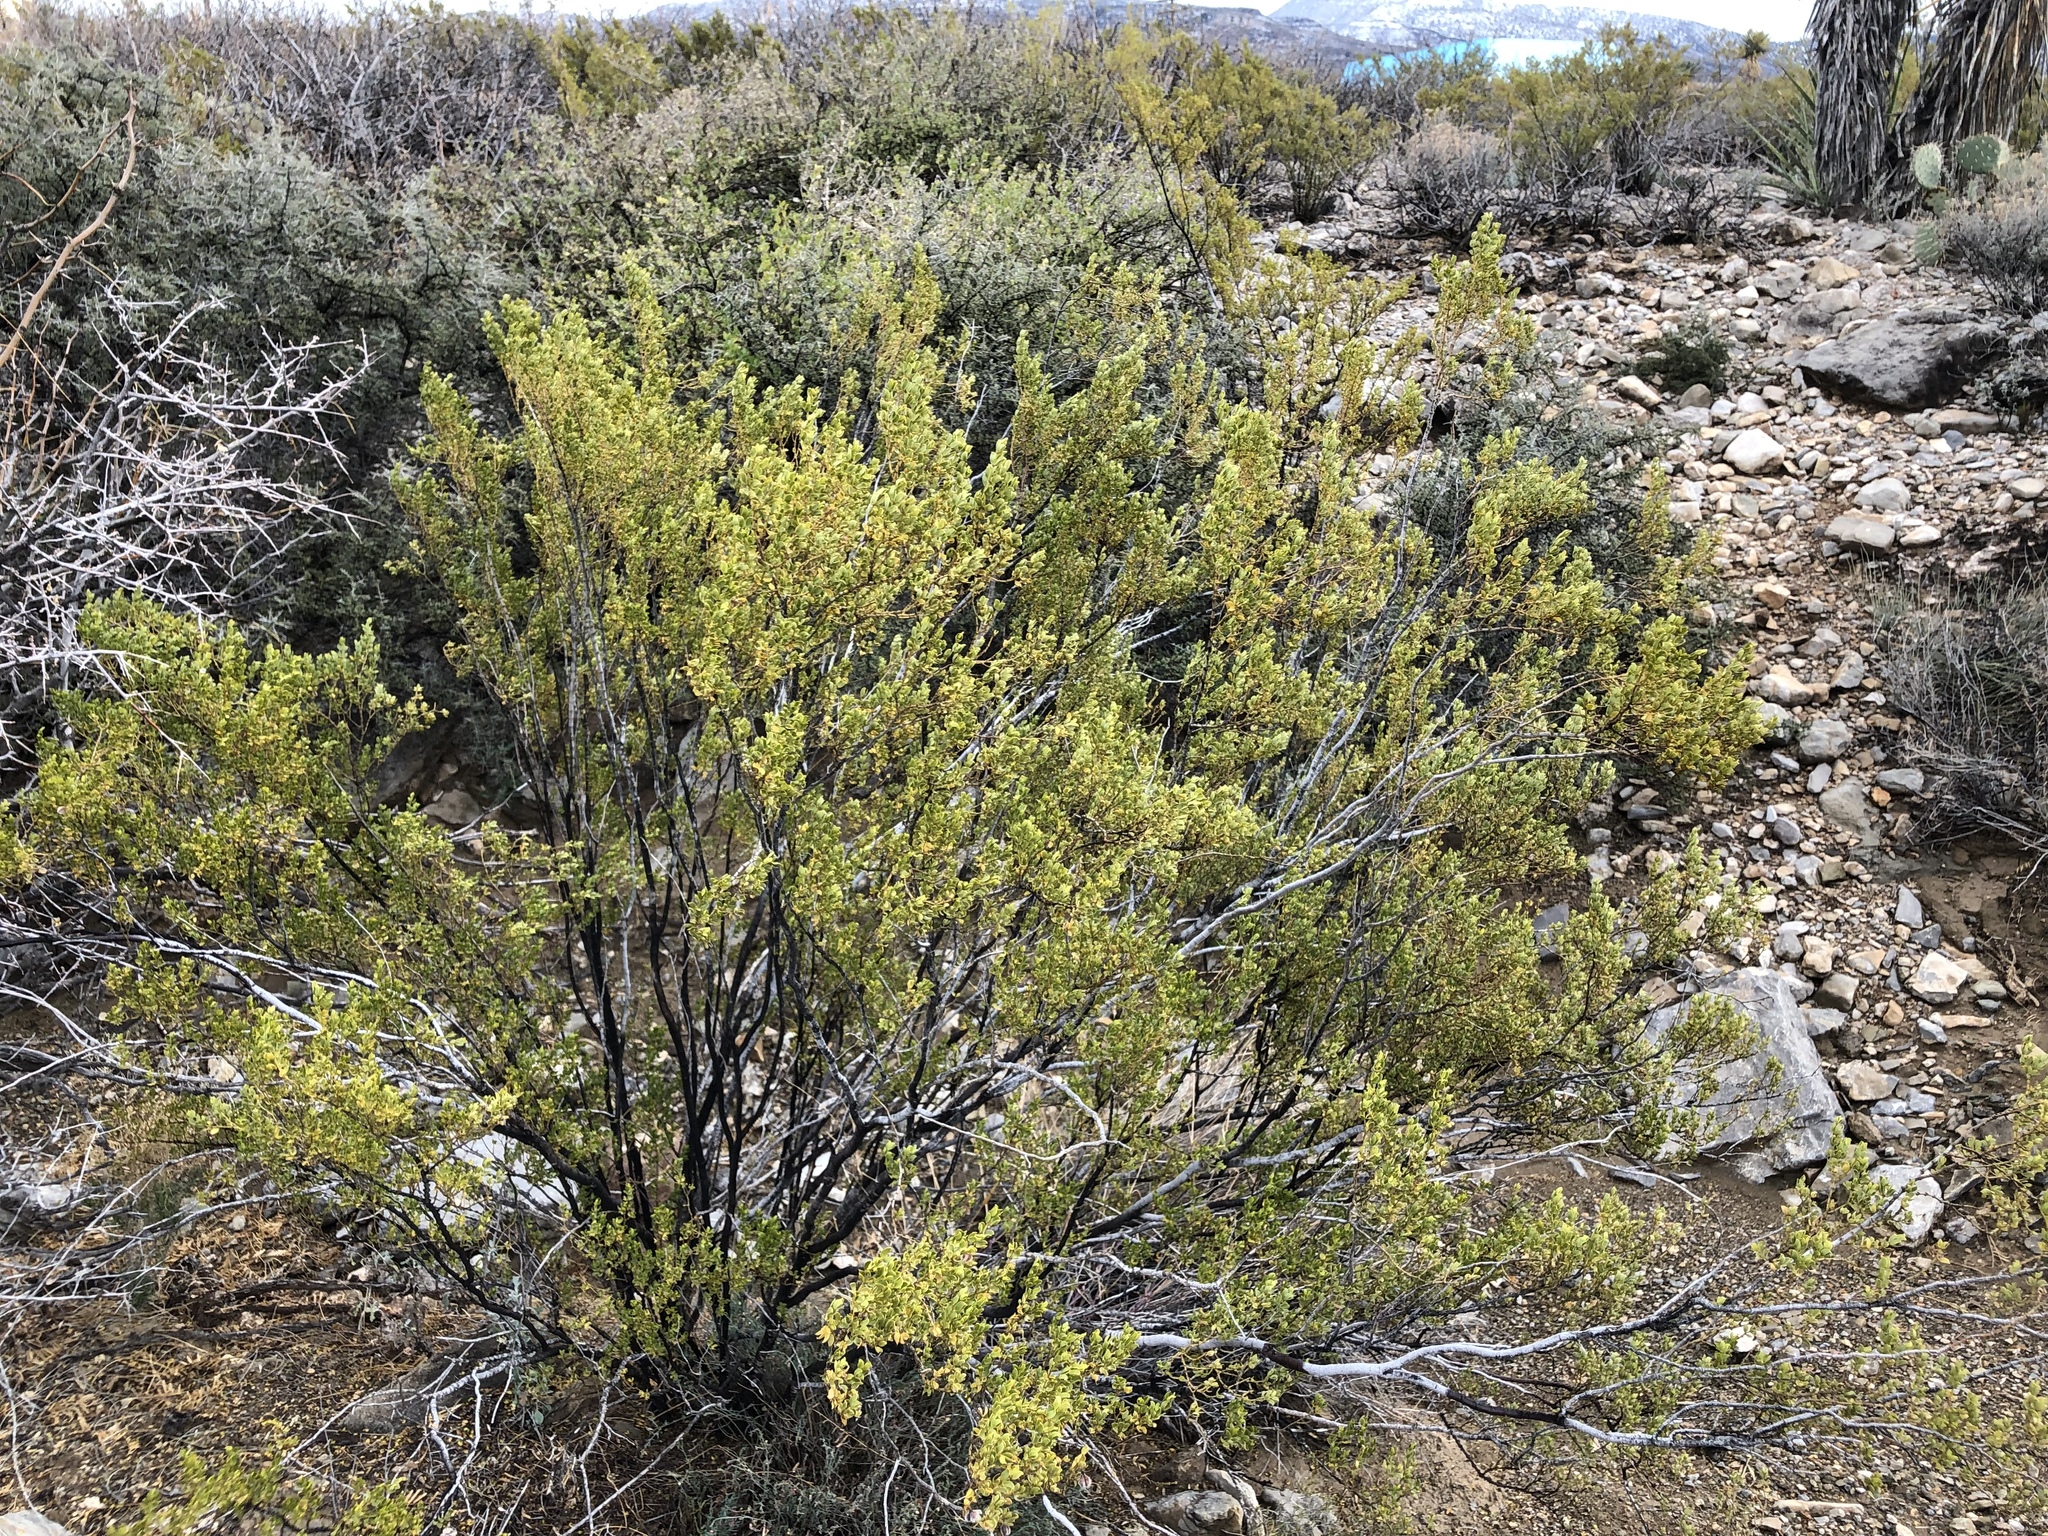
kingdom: Plantae
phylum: Tracheophyta
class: Magnoliopsida
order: Zygophyllales
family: Zygophyllaceae
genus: Larrea
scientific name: Larrea tridentata
